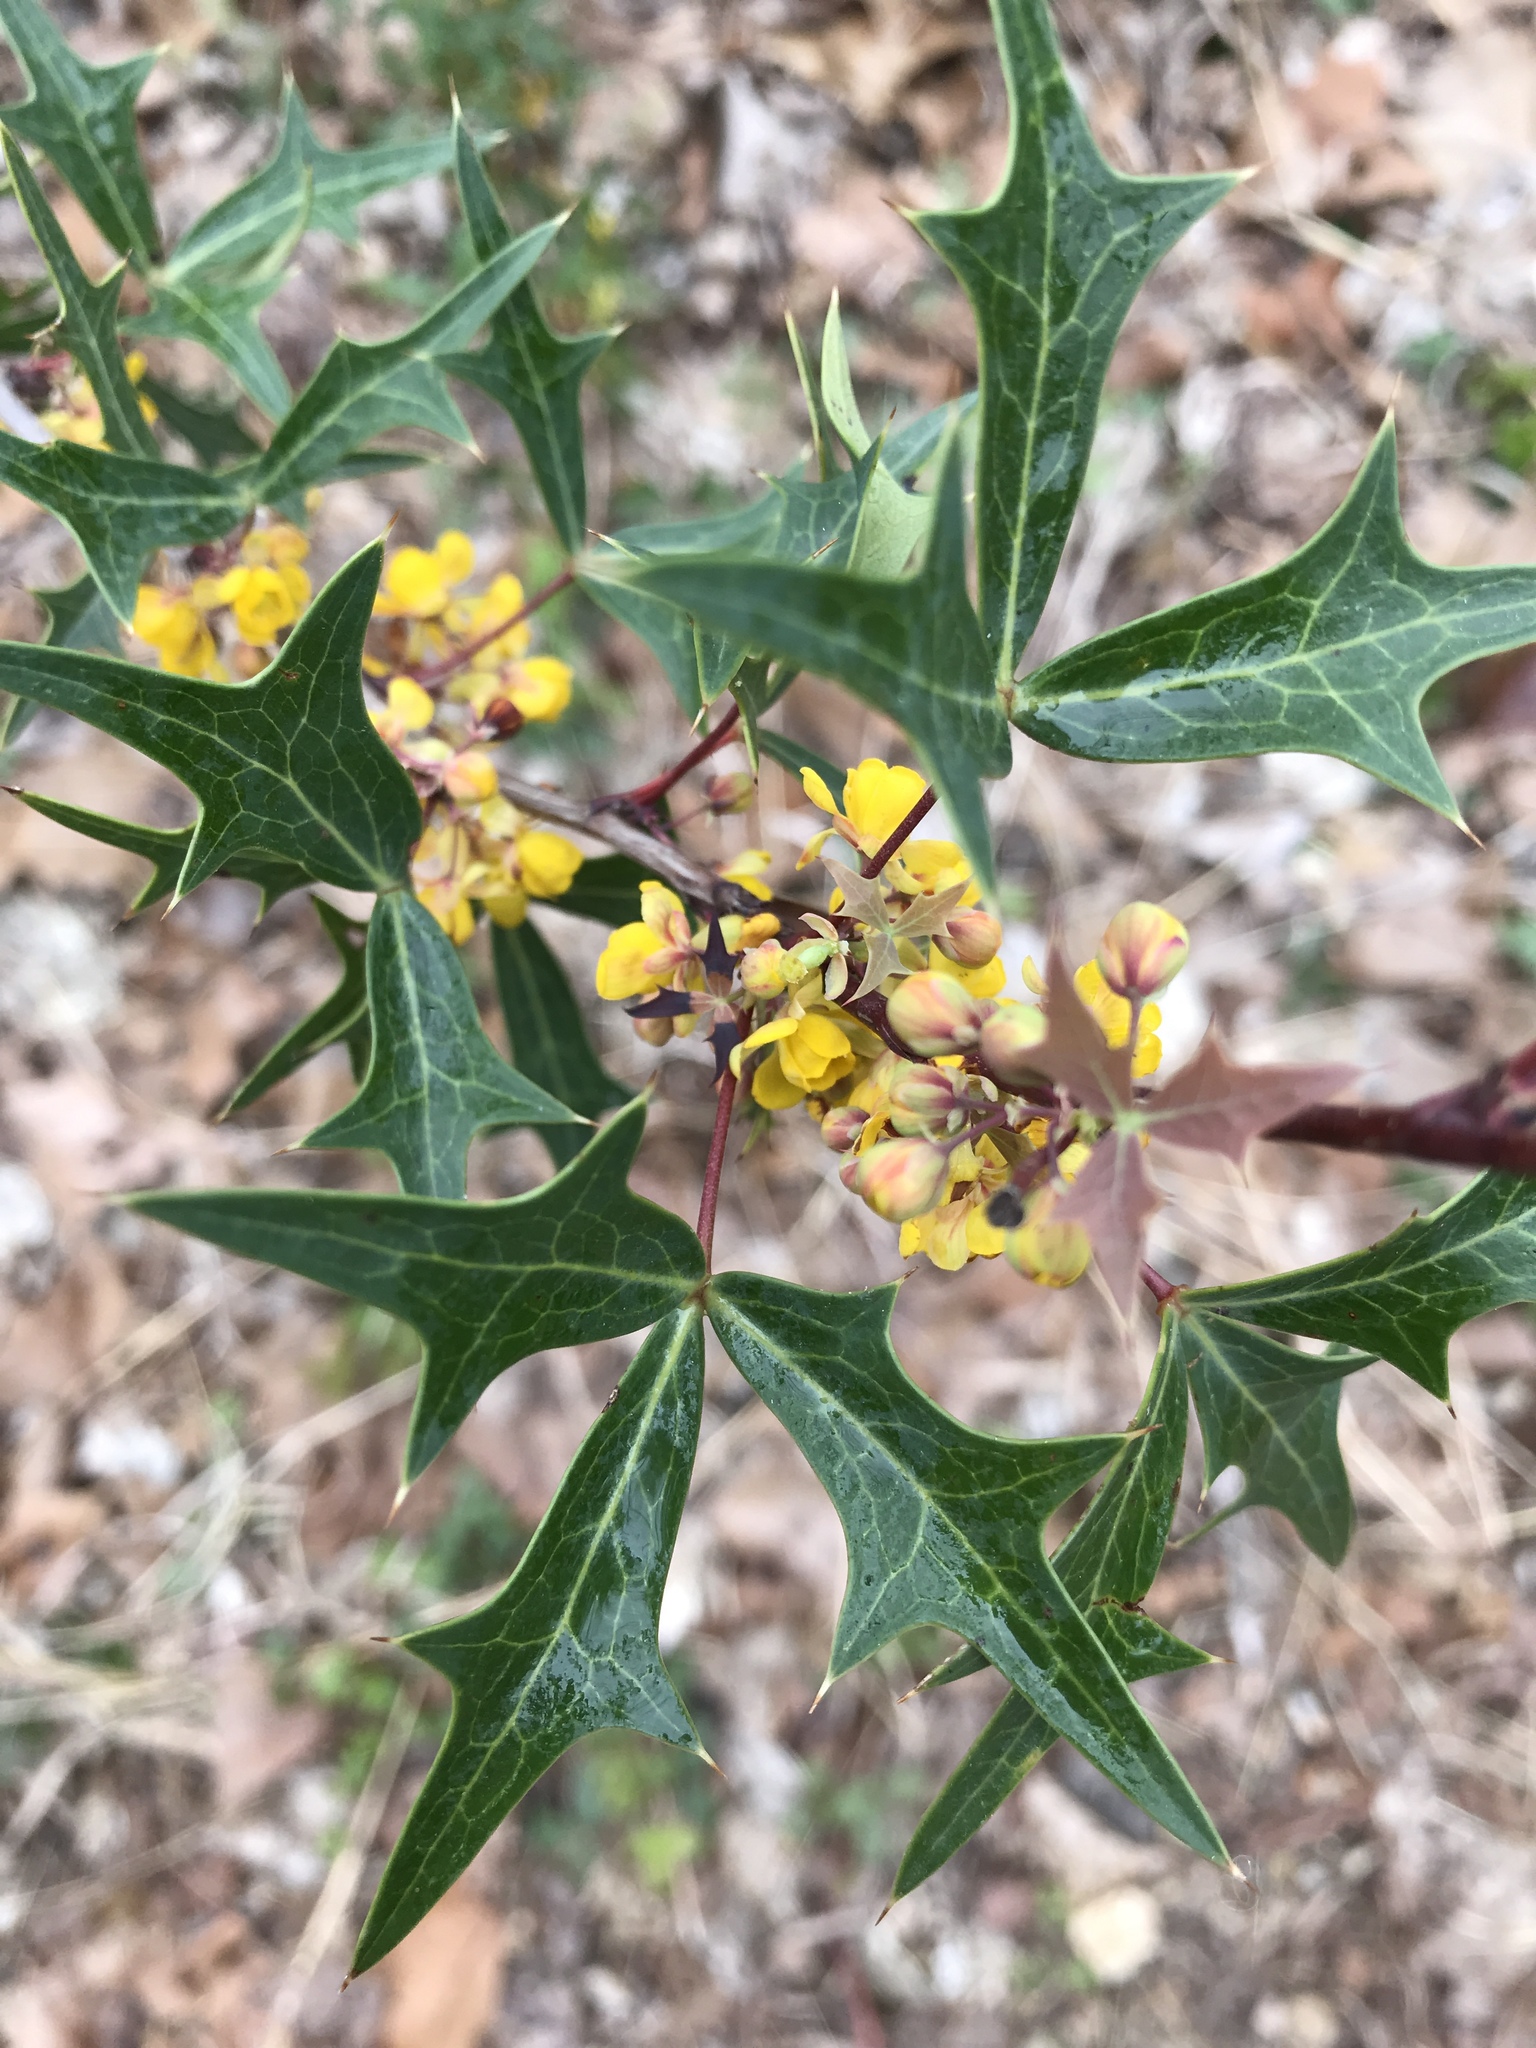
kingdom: Plantae
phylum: Tracheophyta
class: Magnoliopsida
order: Ranunculales
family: Berberidaceae
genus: Alloberberis
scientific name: Alloberberis trifoliolata
